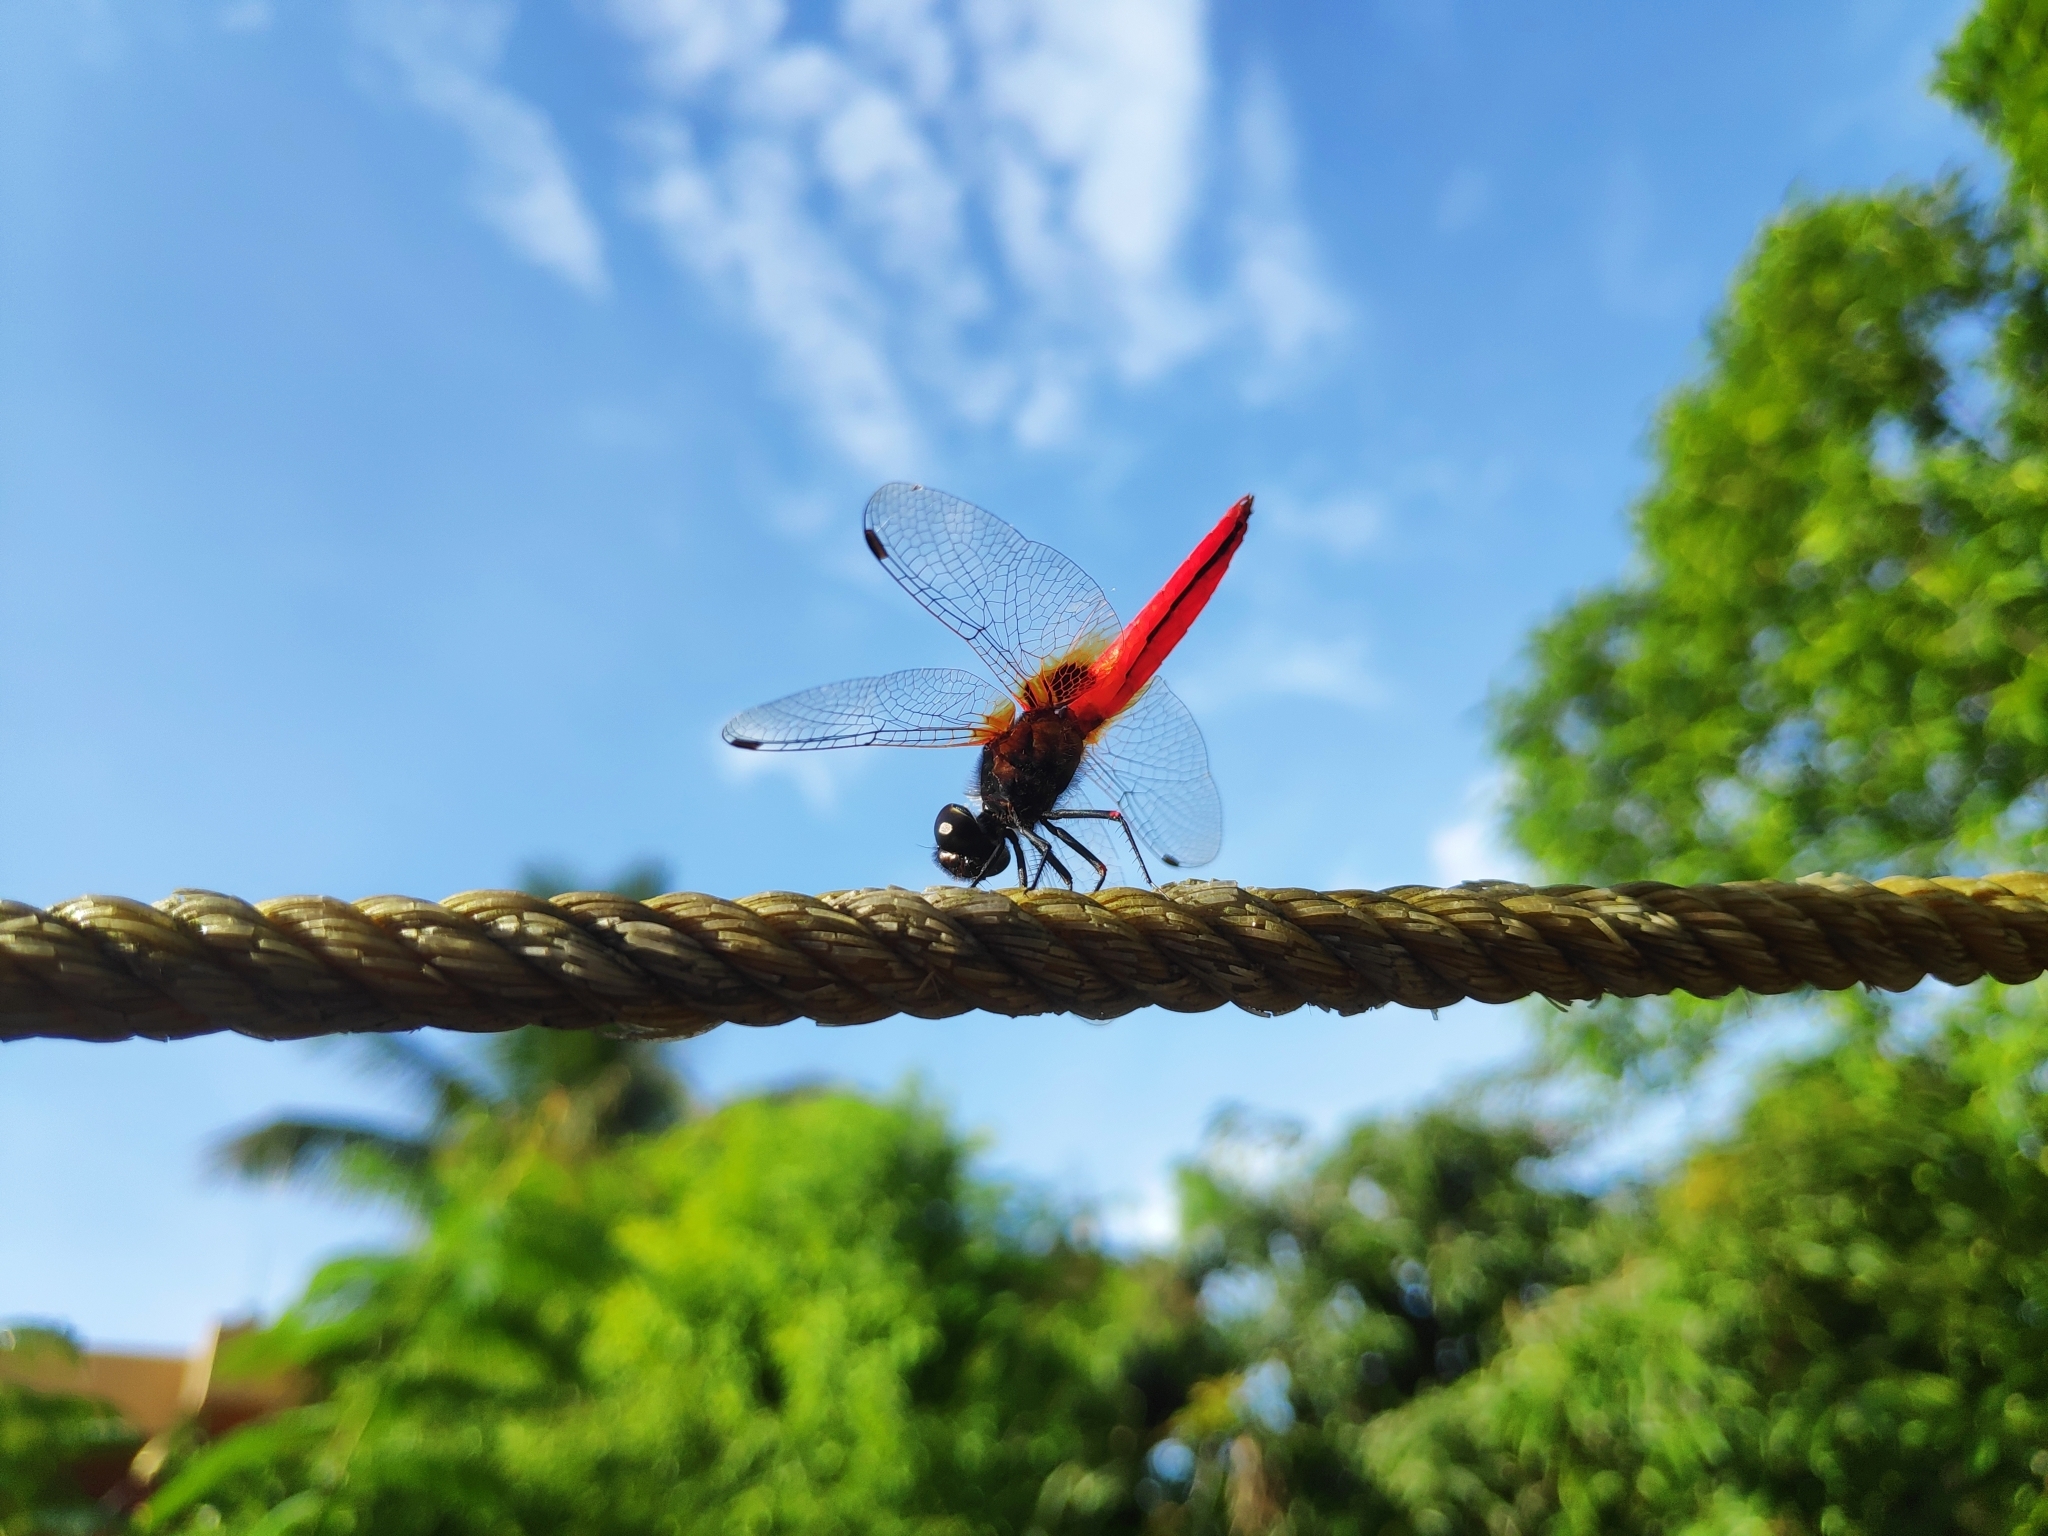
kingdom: Animalia
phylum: Arthropoda
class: Insecta
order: Odonata
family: Libellulidae
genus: Aethriamanta
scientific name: Aethriamanta brevipennis
